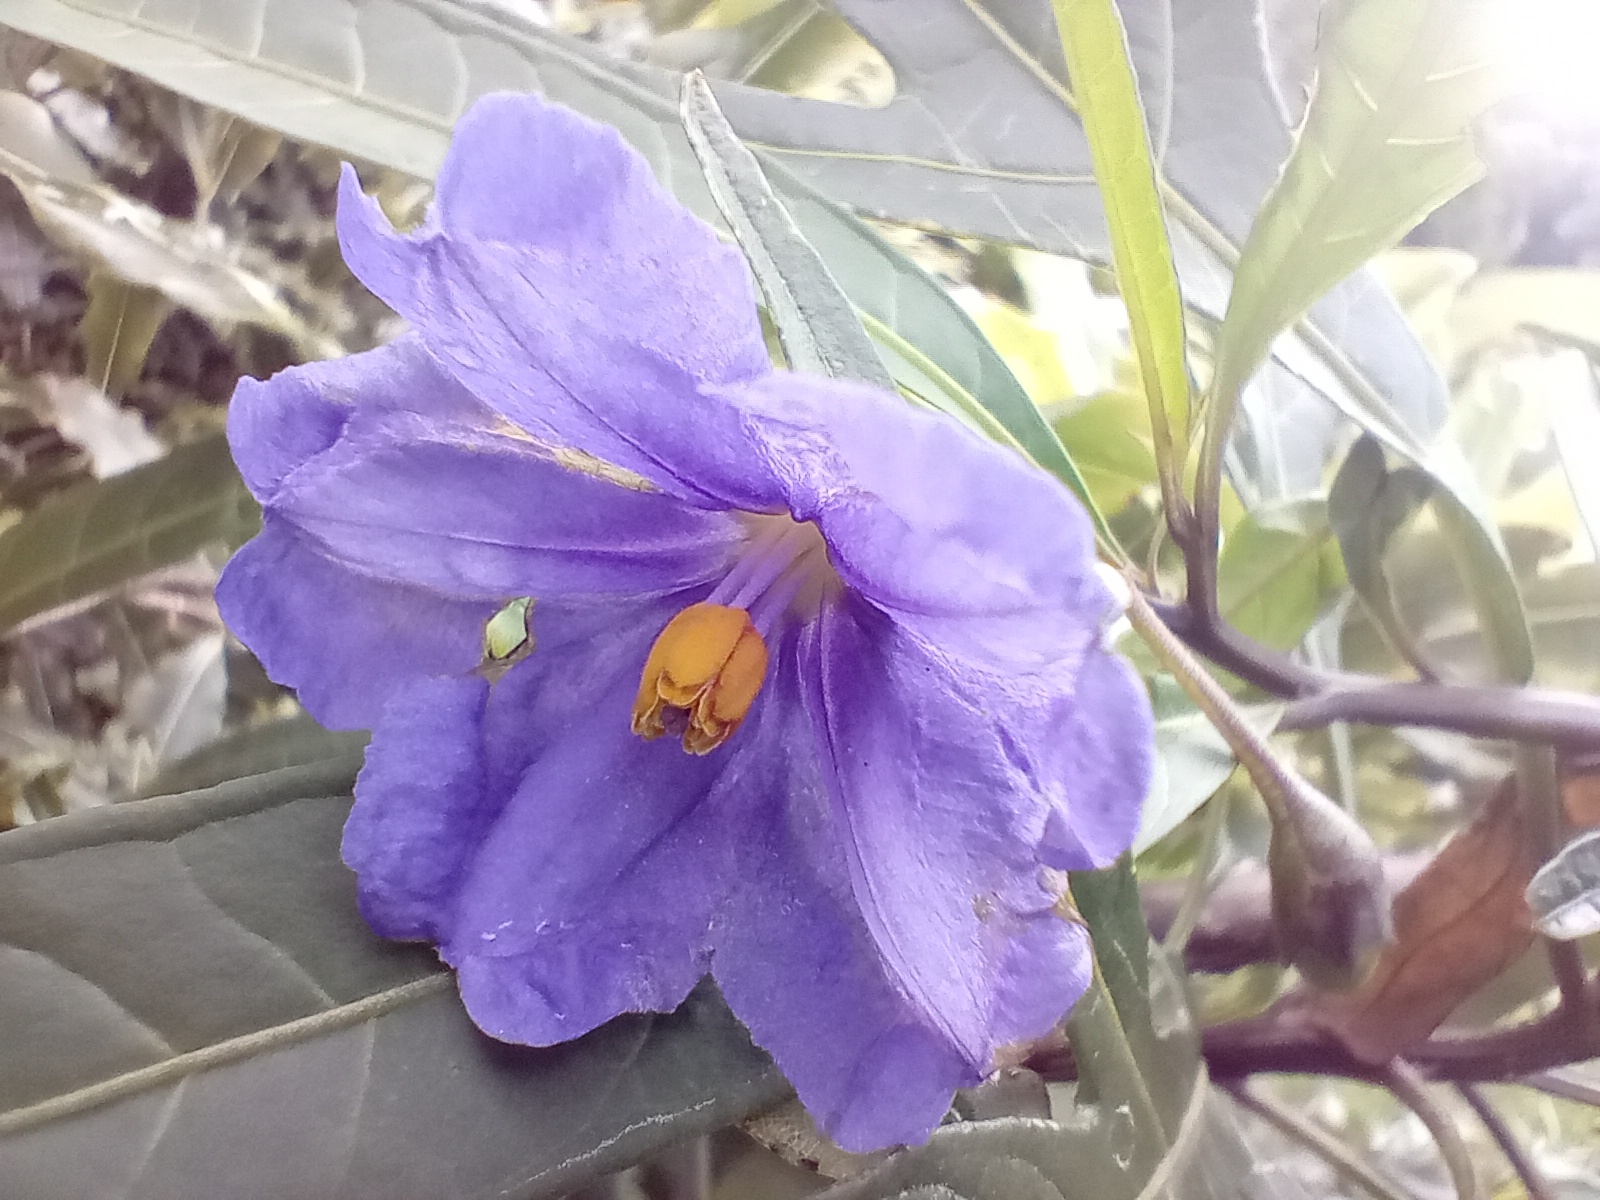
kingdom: Plantae
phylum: Tracheophyta
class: Magnoliopsida
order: Solanales
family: Solanaceae
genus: Solanum
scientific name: Solanum laciniatum
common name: Kangaroo-apple
